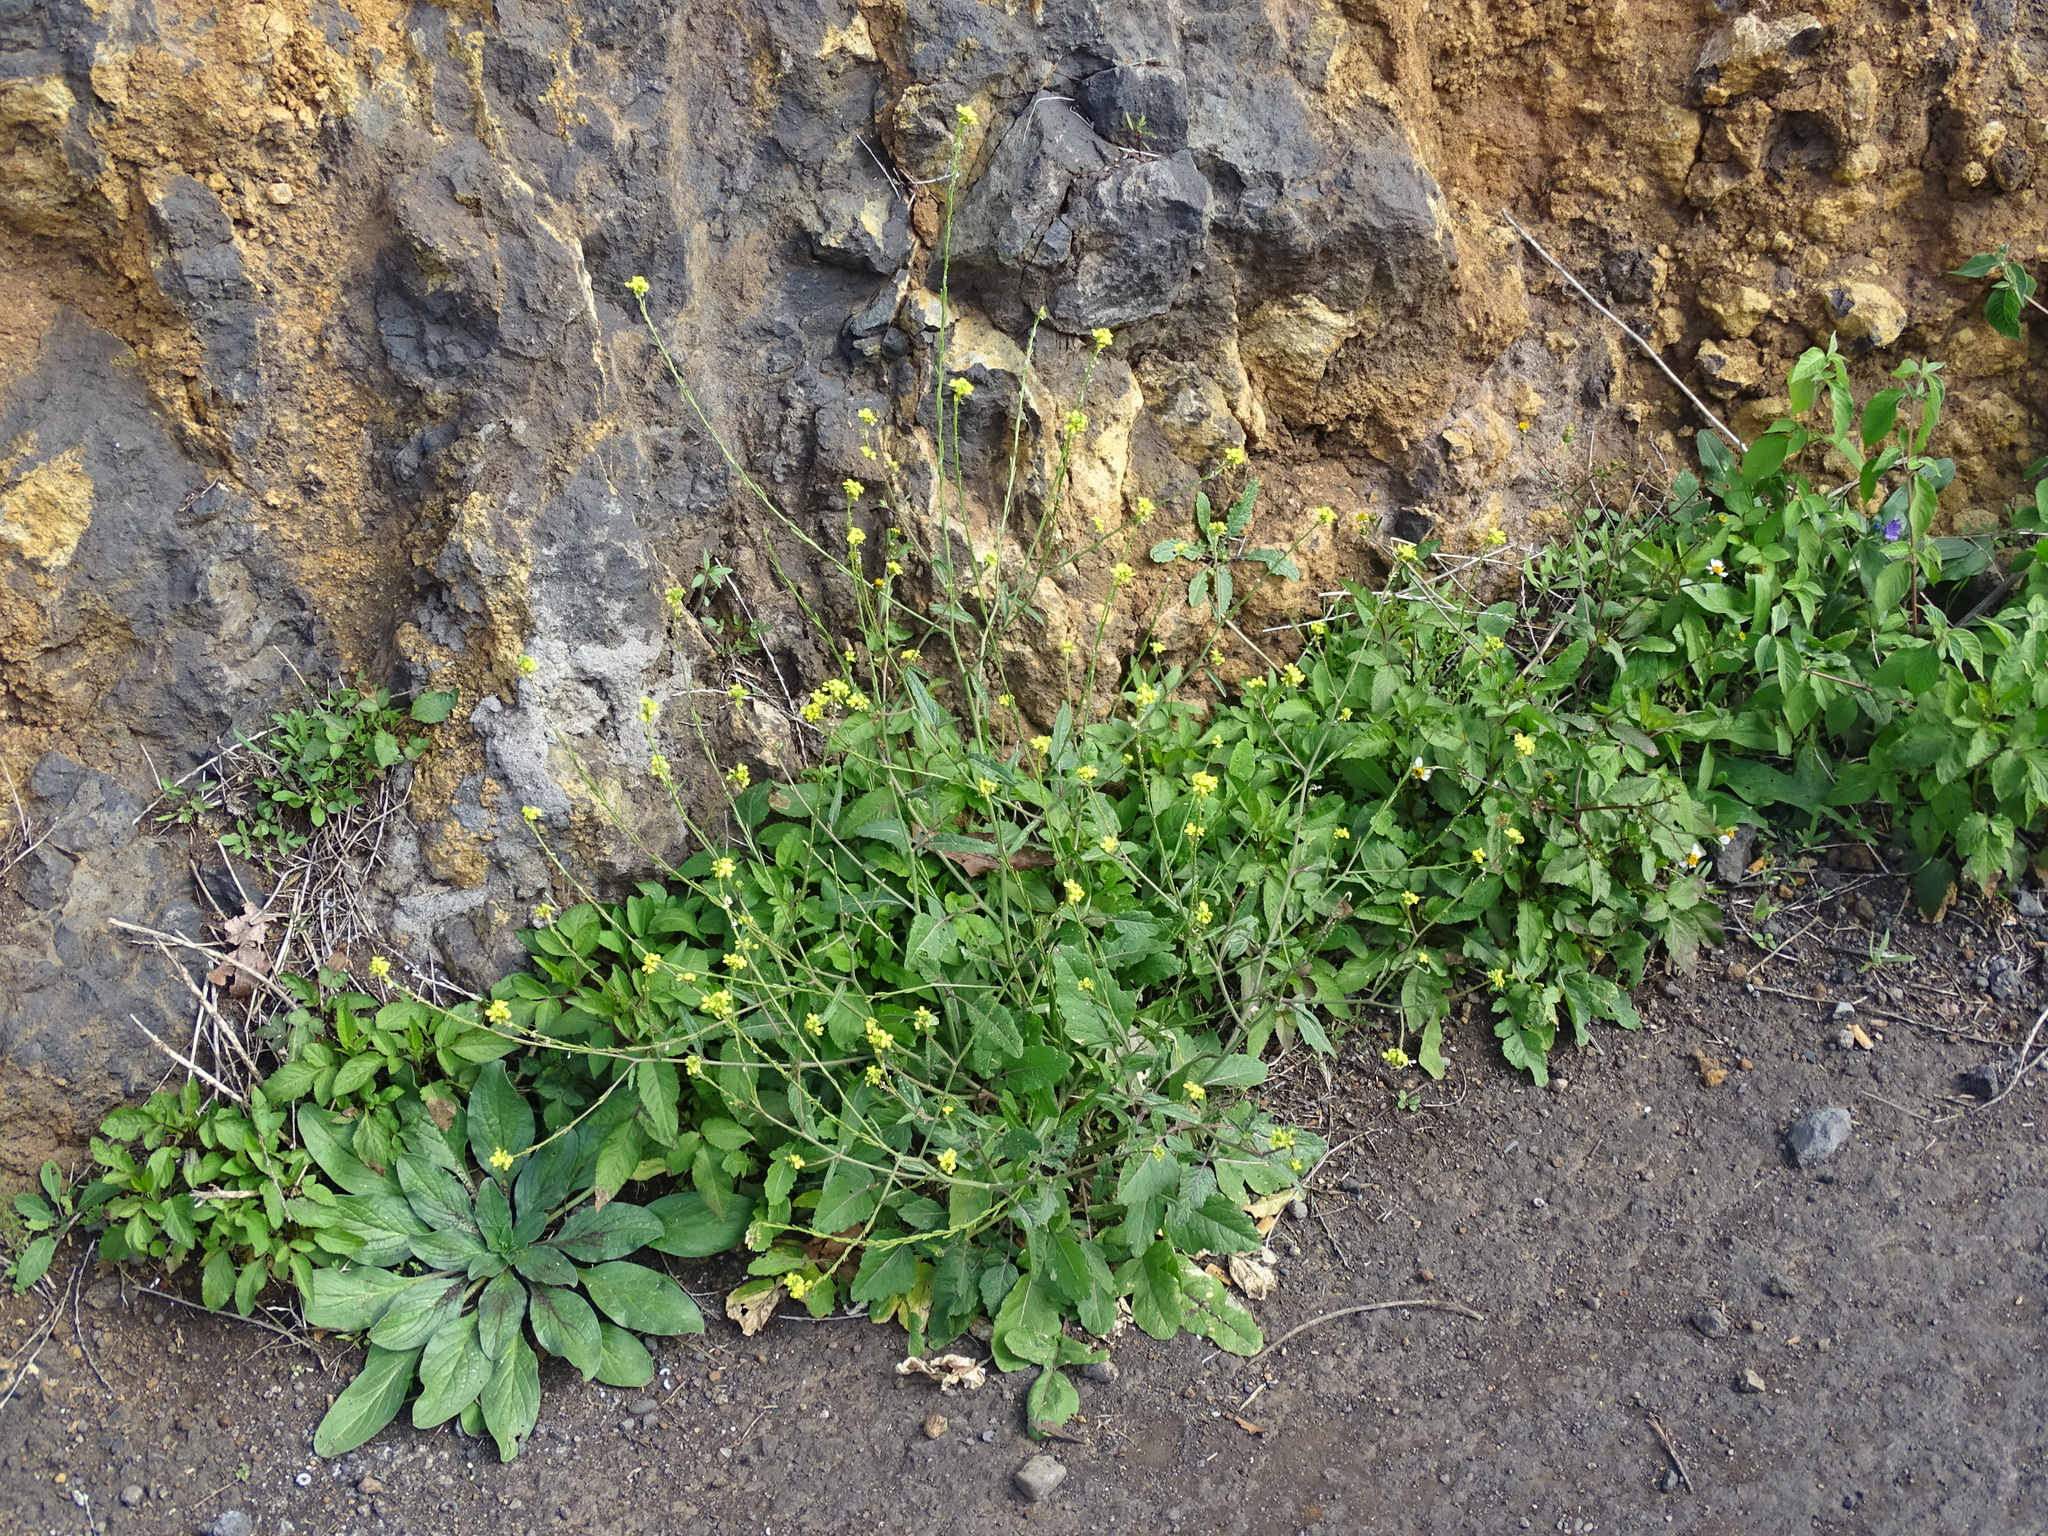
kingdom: Plantae
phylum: Tracheophyta
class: Magnoliopsida
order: Brassicales
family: Brassicaceae
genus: Hirschfeldia
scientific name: Hirschfeldia incana
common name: Hoary mustard
